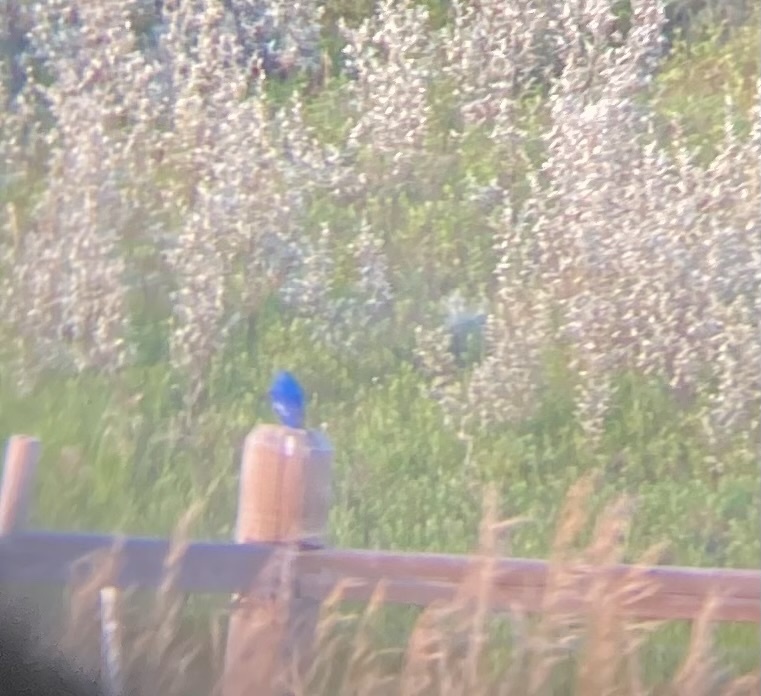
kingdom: Animalia
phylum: Chordata
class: Aves
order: Passeriformes
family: Turdidae
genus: Sialia
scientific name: Sialia currucoides
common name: Mountain bluebird
